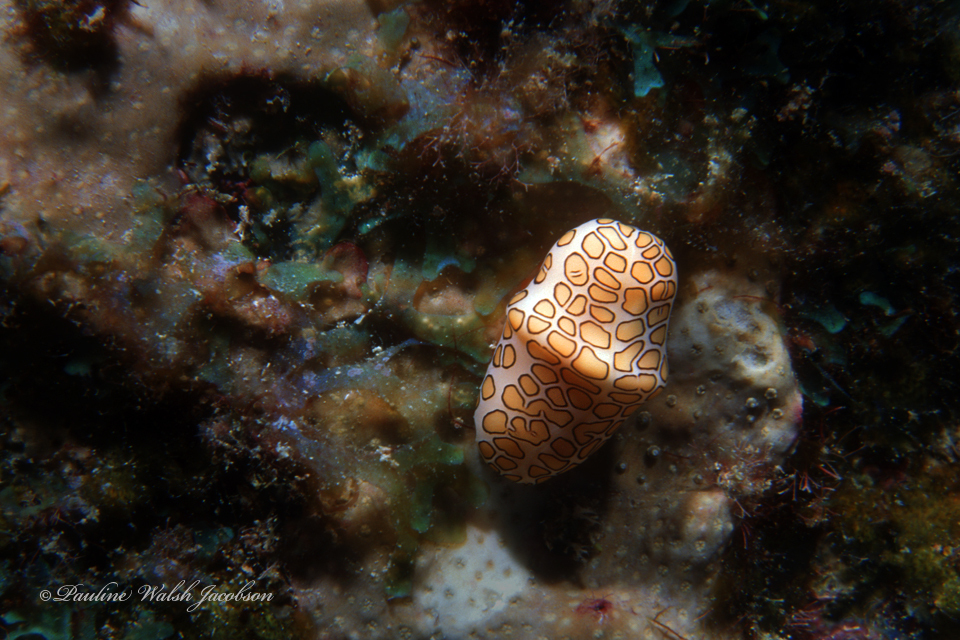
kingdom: Animalia
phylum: Mollusca
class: Gastropoda
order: Littorinimorpha
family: Ovulidae
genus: Cyphoma
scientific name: Cyphoma gibbosum
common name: Flamingo tongue
